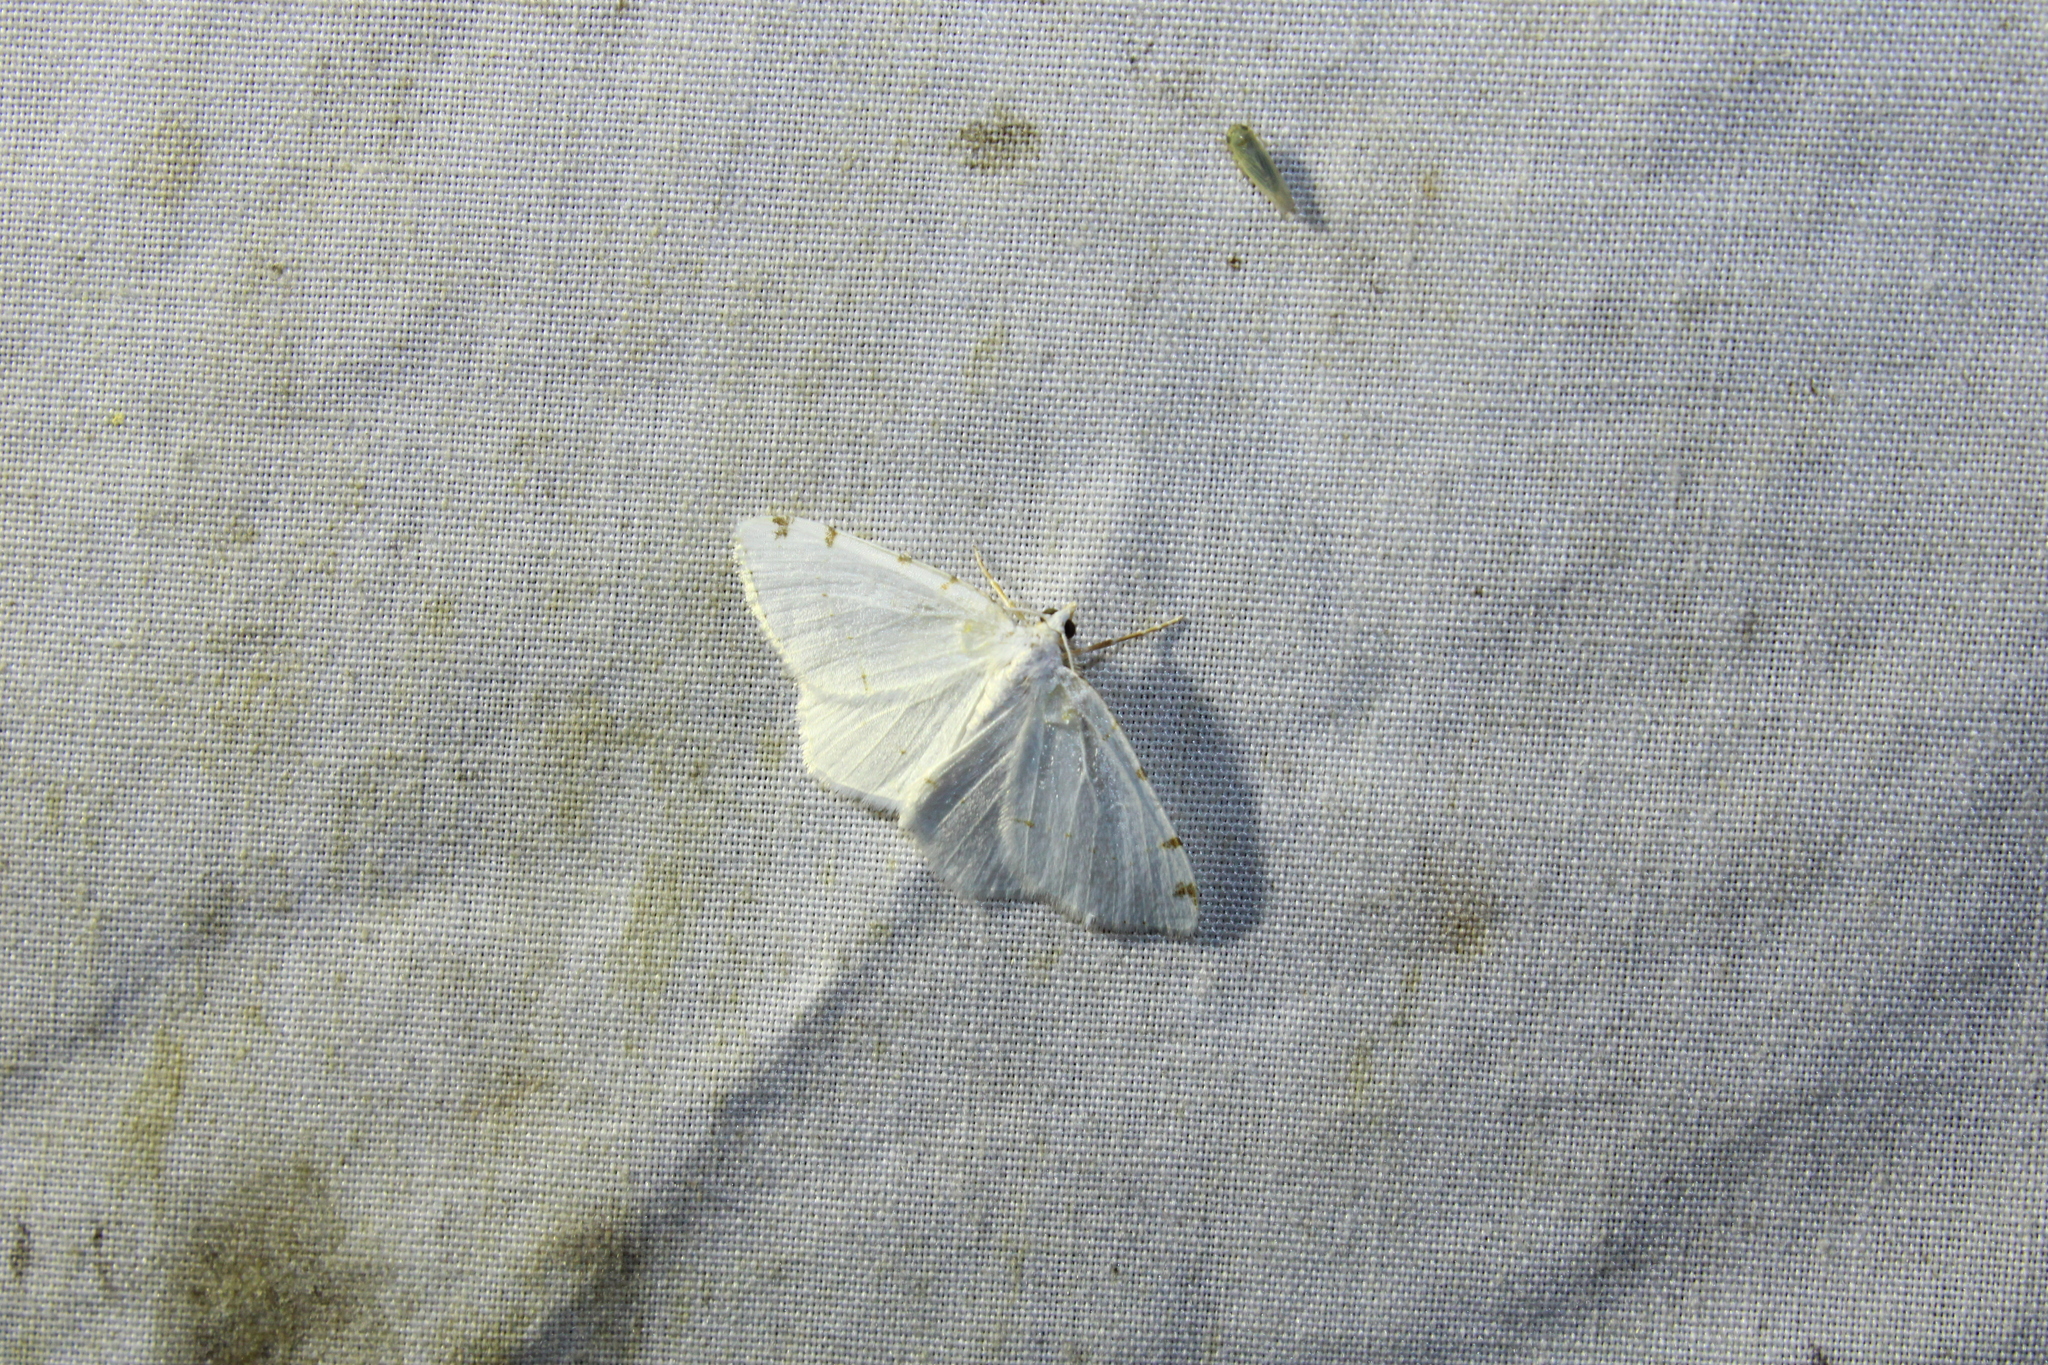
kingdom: Animalia
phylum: Arthropoda
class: Insecta
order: Lepidoptera
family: Geometridae
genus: Macaria
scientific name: Macaria pustularia
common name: Lesser maple spanworm moth
